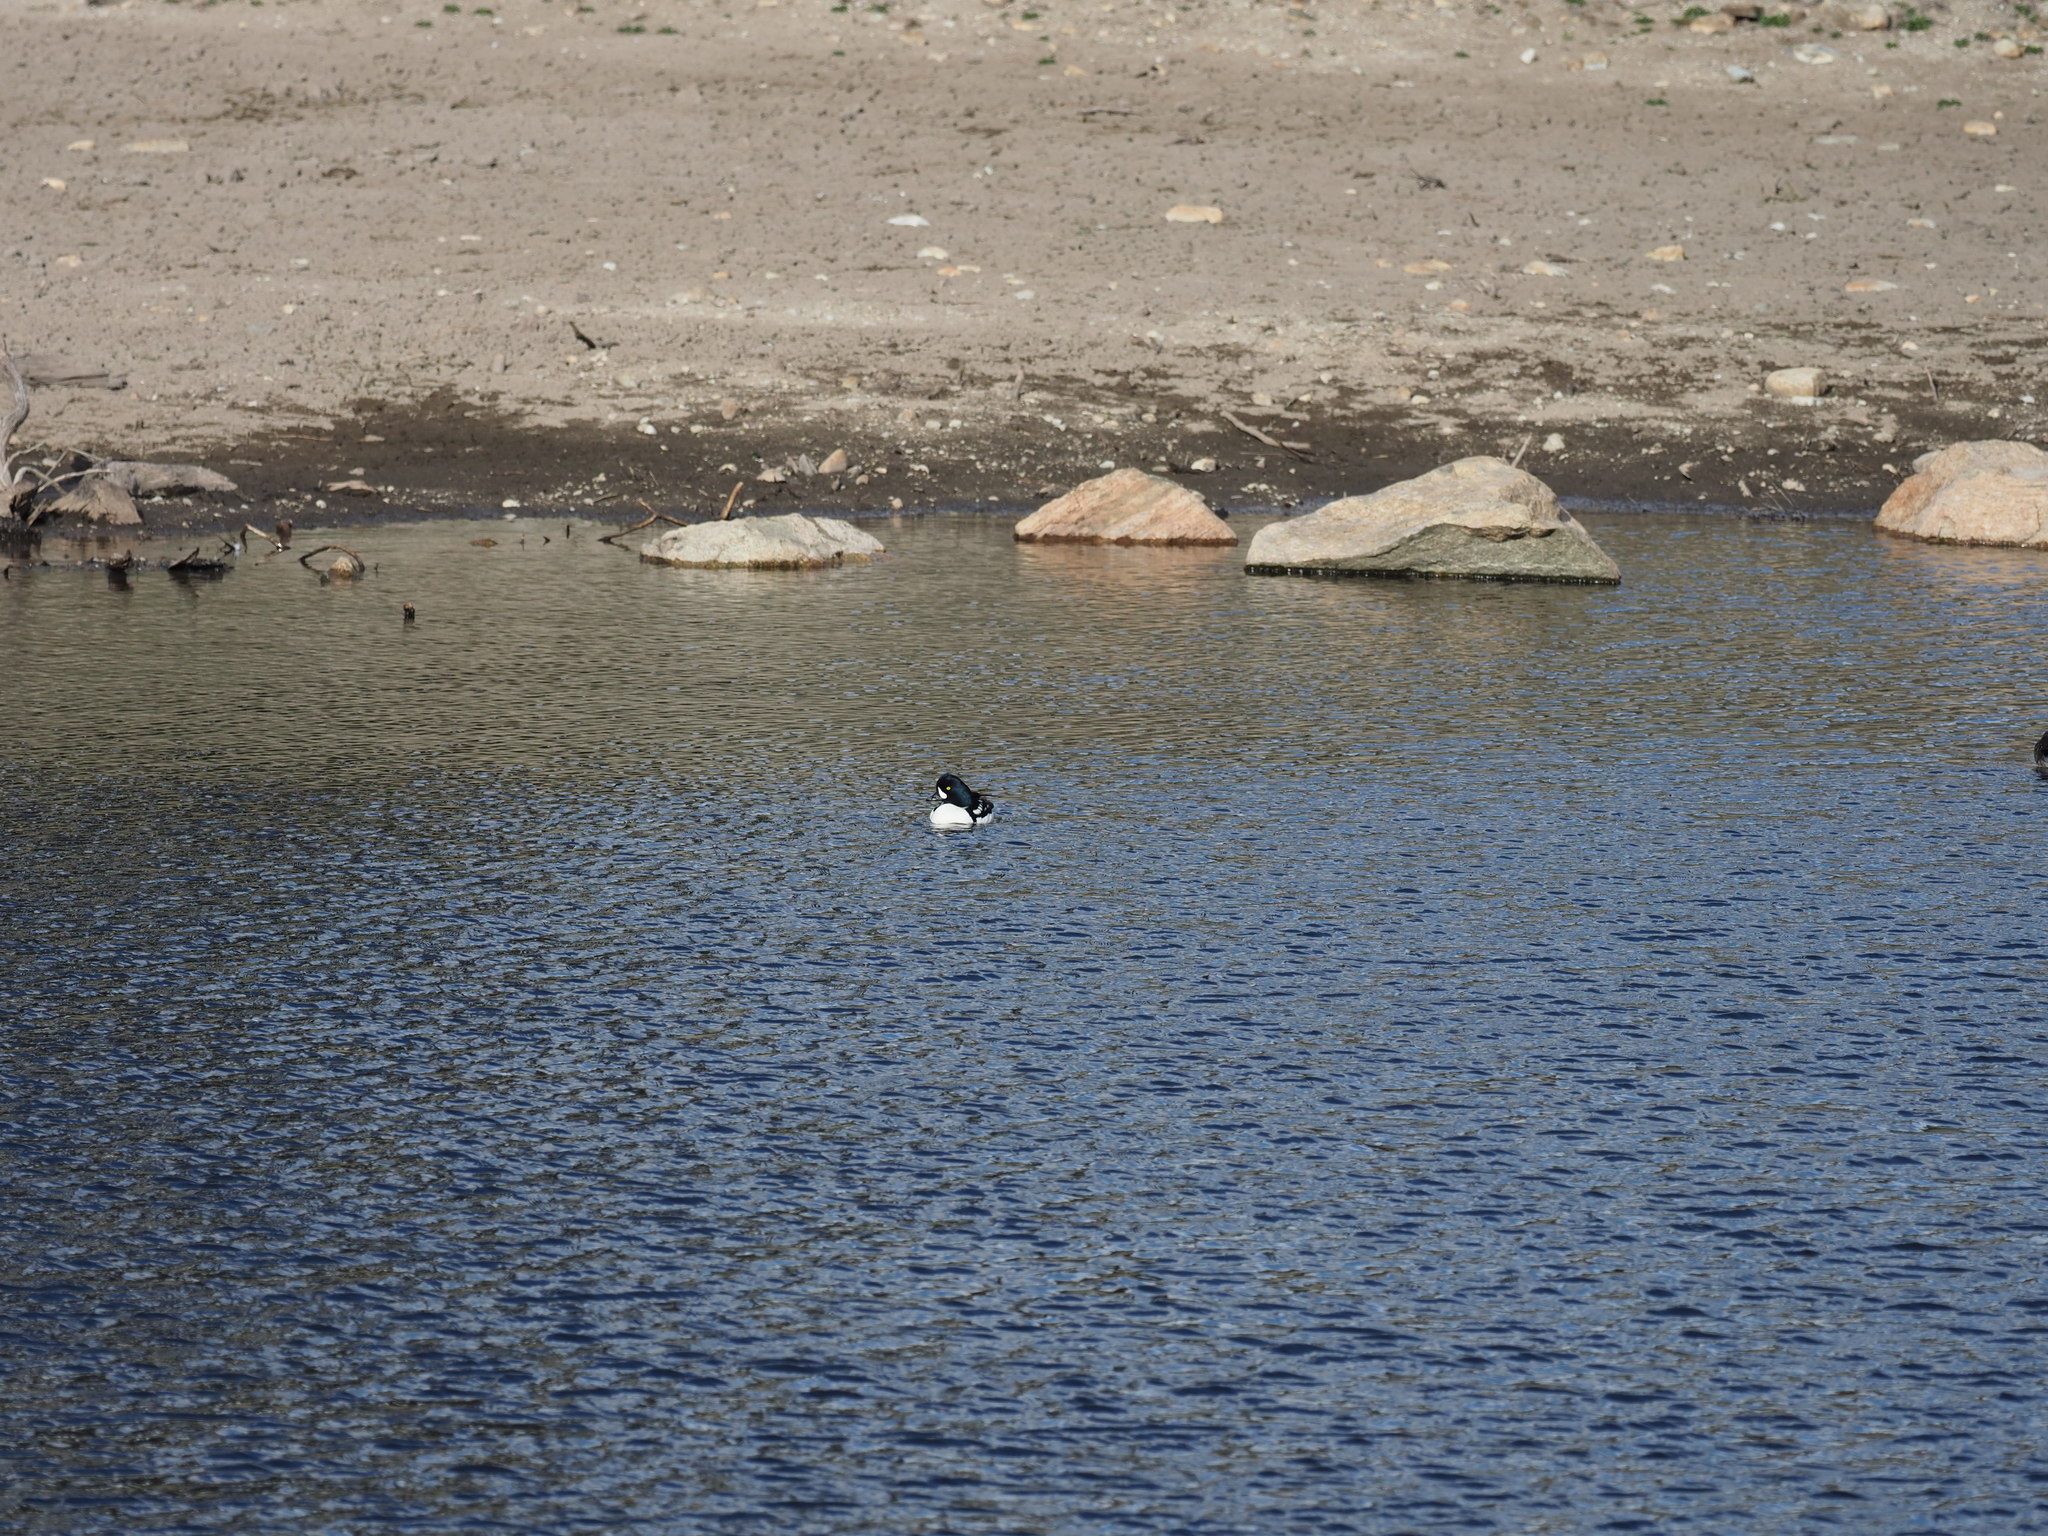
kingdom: Animalia
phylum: Chordata
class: Aves
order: Anseriformes
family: Anatidae
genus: Bucephala
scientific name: Bucephala islandica
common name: Barrow's goldeneye
